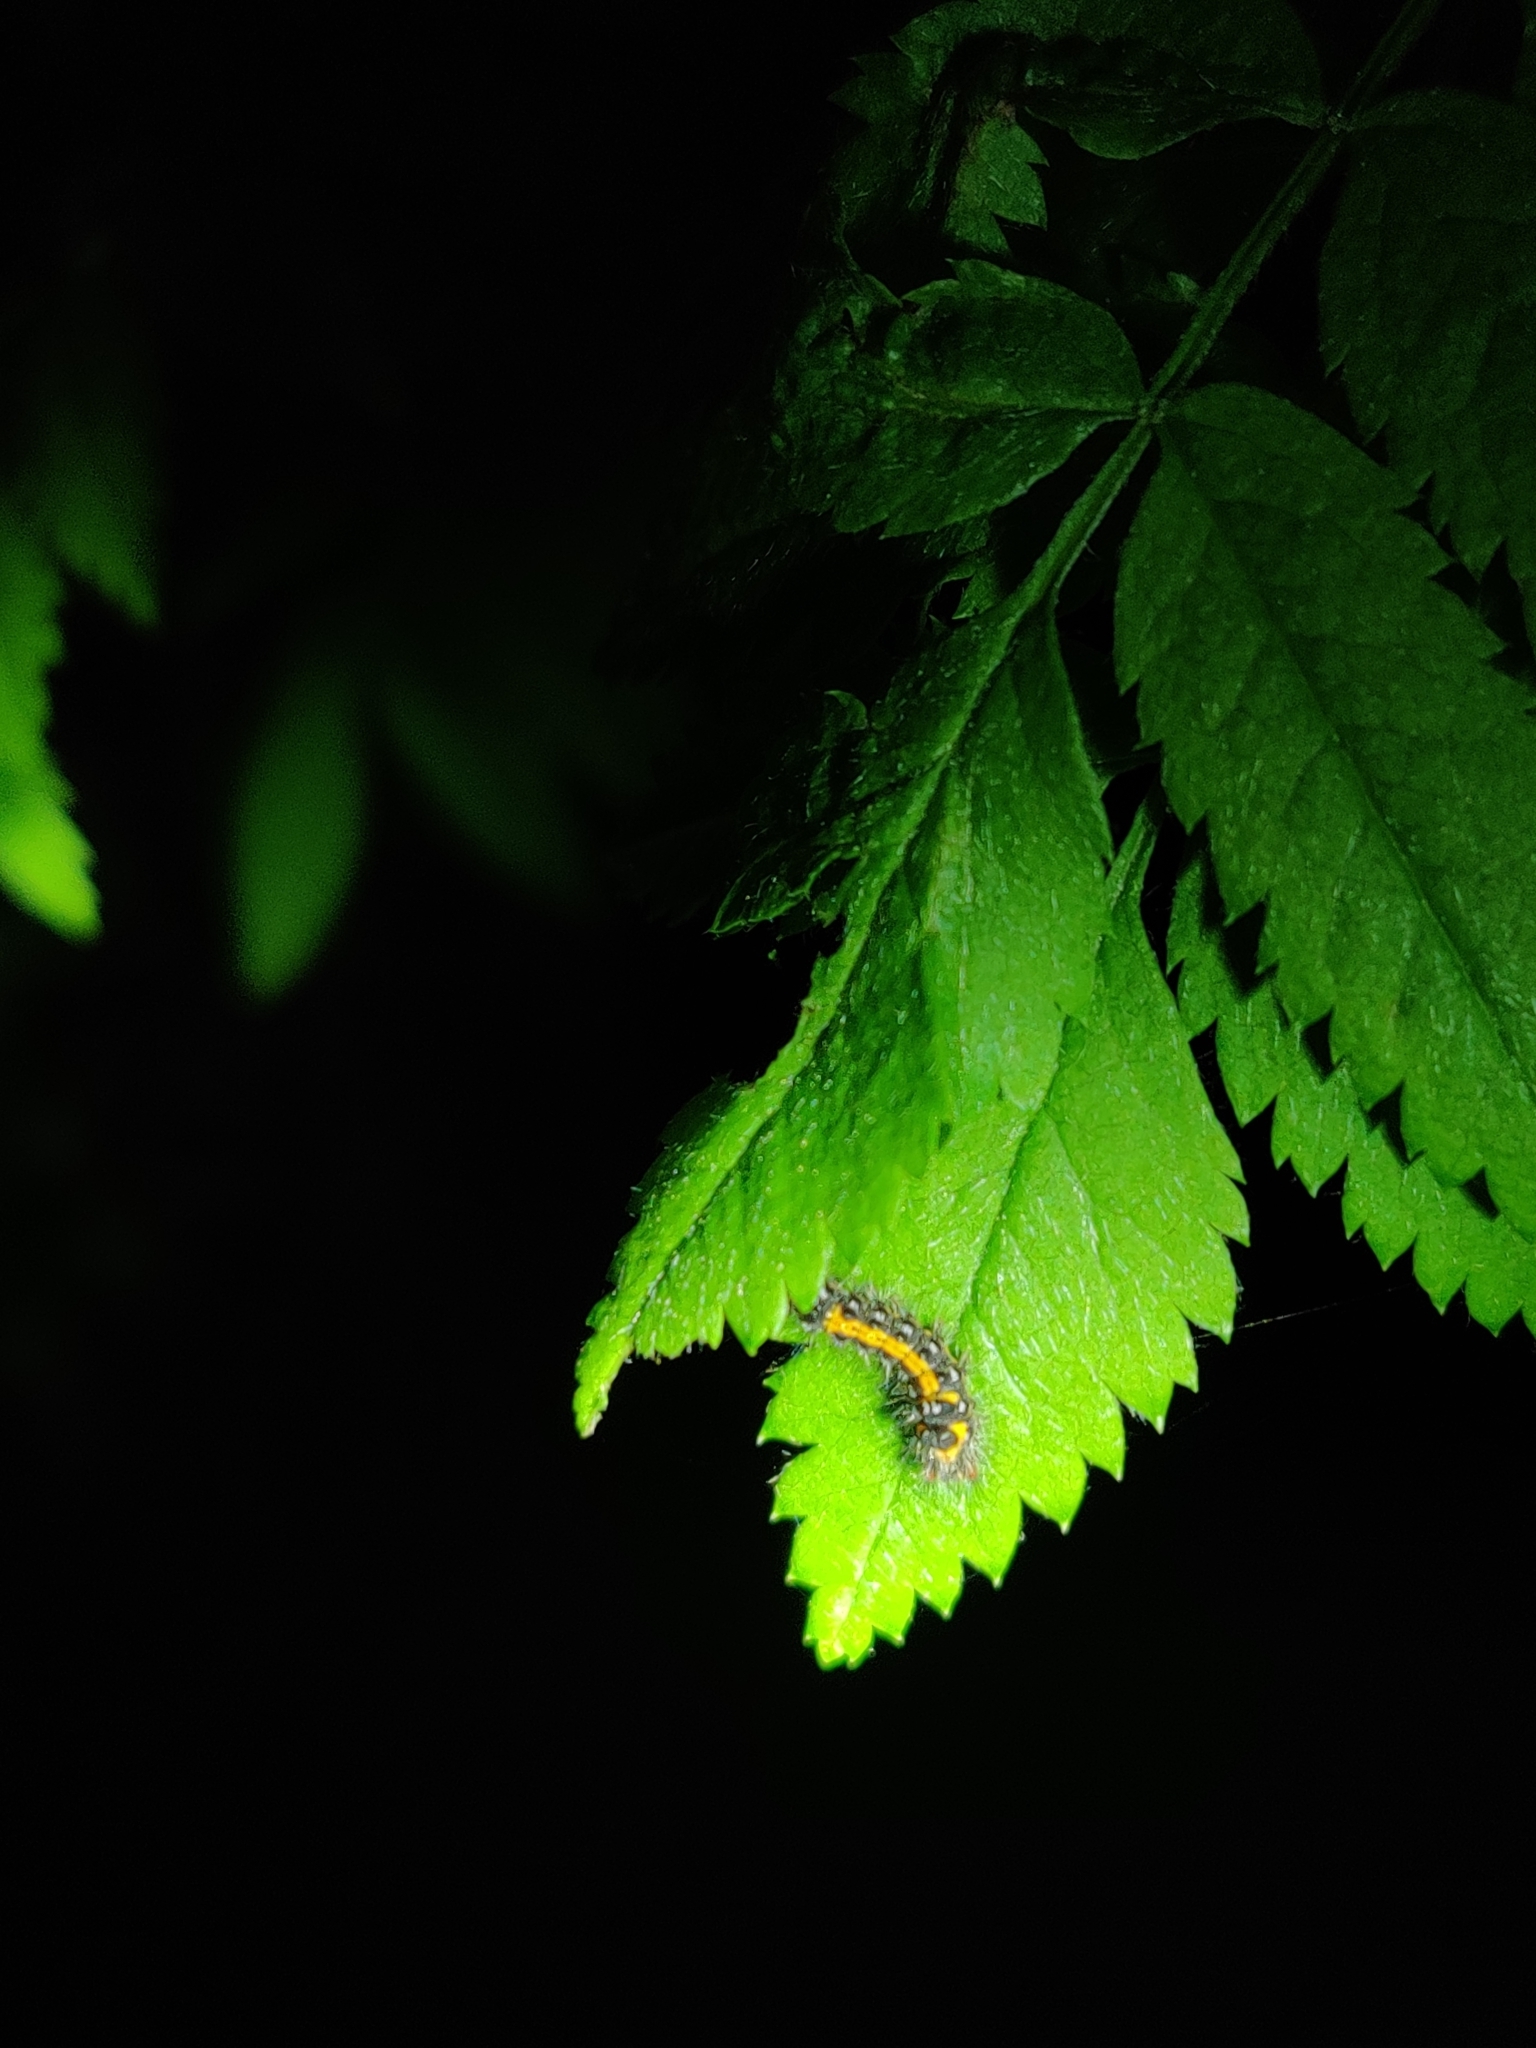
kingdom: Animalia
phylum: Arthropoda
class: Insecta
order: Lepidoptera
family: Erebidae
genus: Sphrageidus
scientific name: Sphrageidus similis
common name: Yellow-tail
